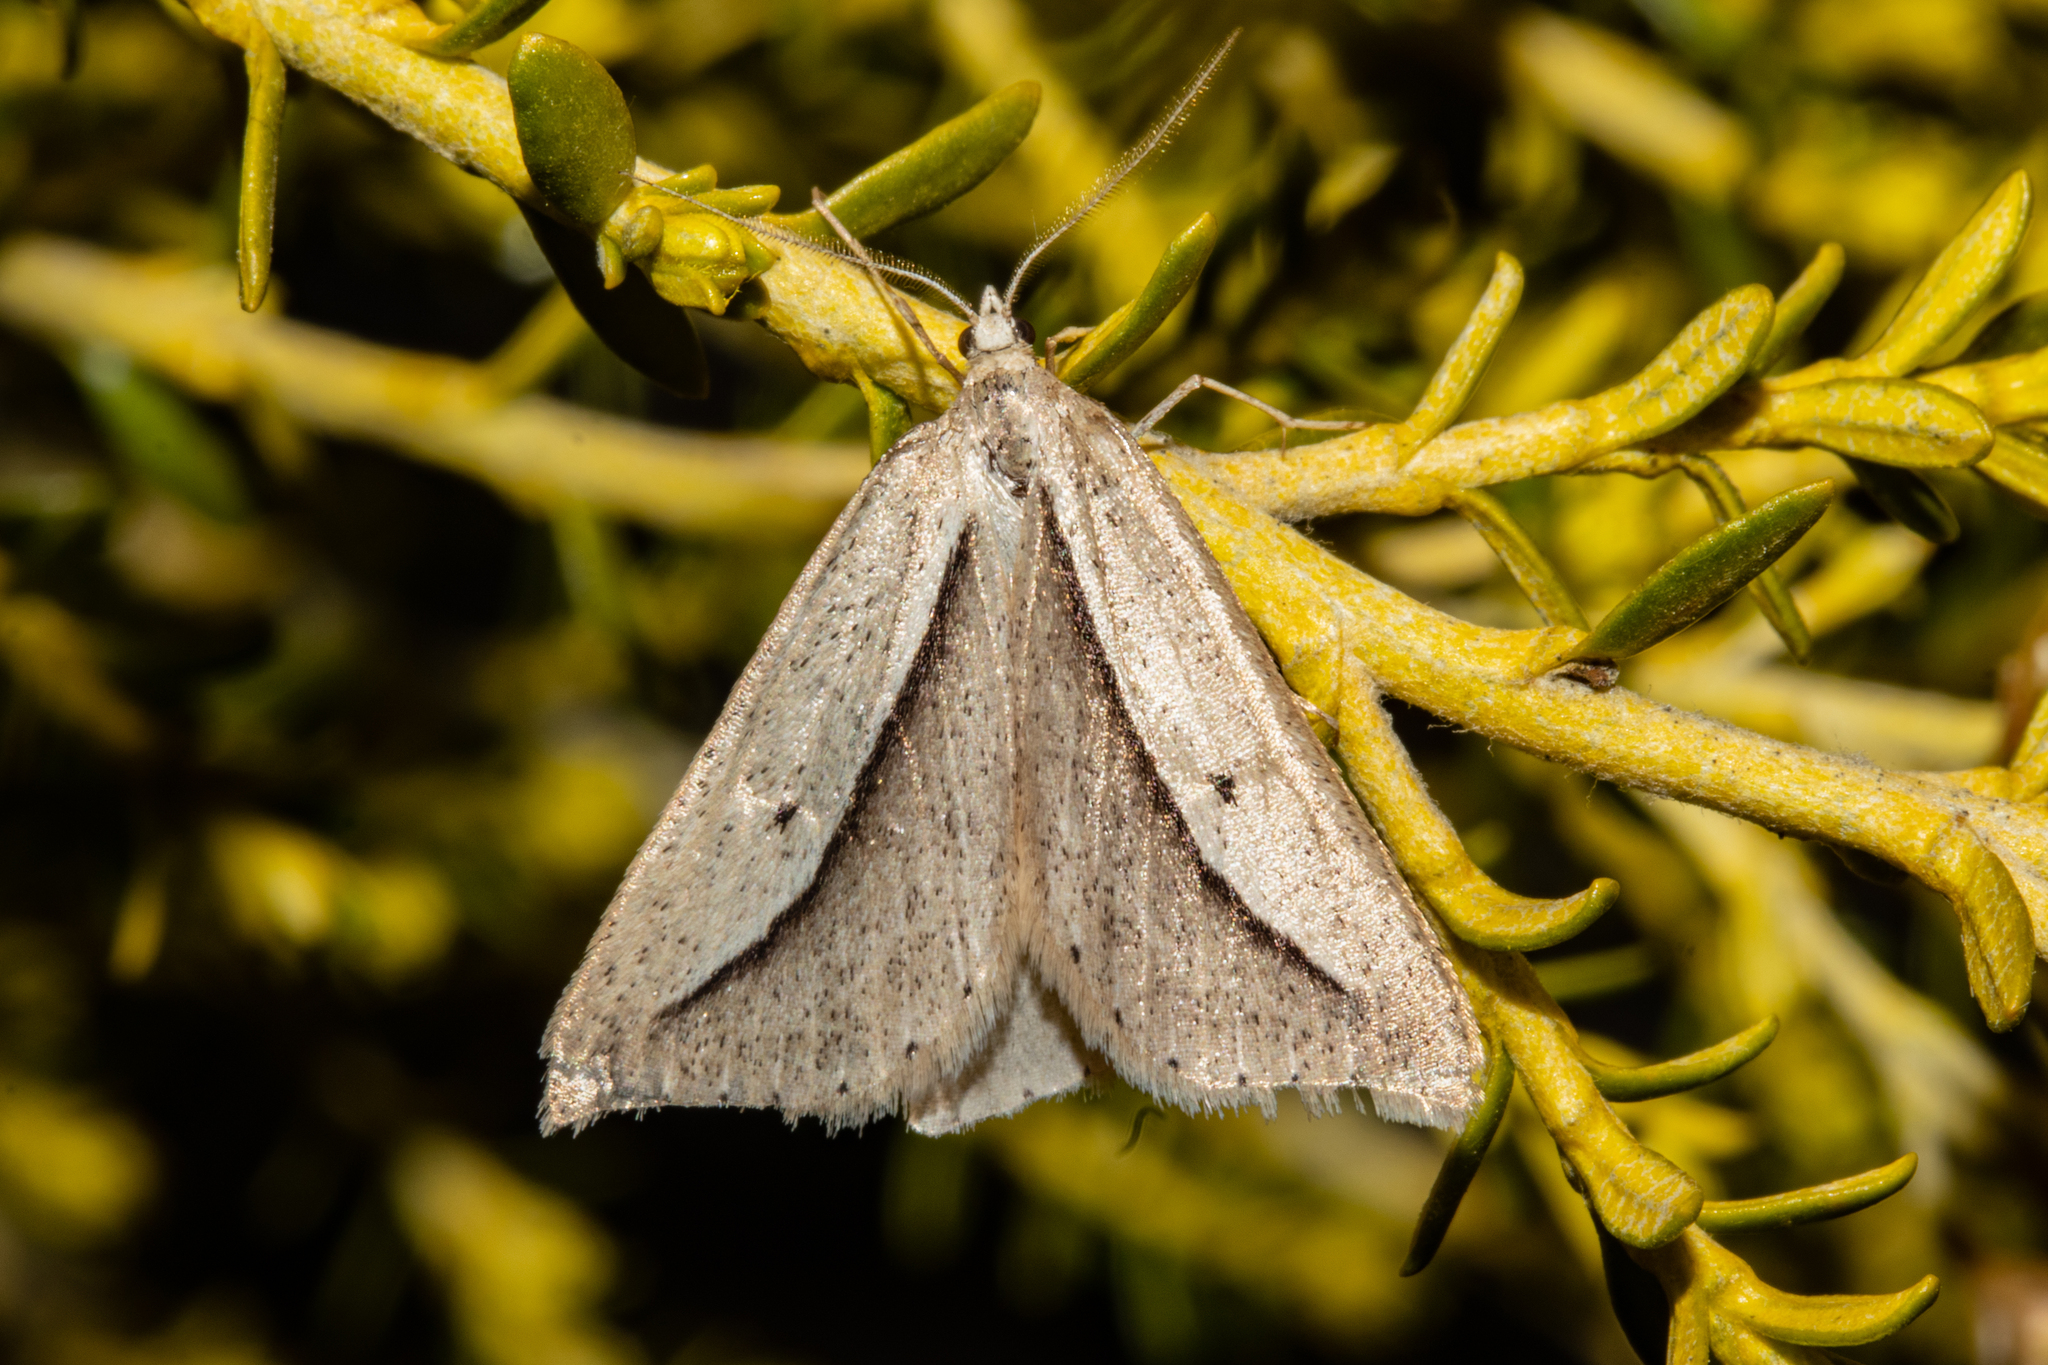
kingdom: Animalia
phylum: Arthropoda
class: Insecta
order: Lepidoptera
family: Geometridae
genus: Theoxena
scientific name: Theoxena scissaria
